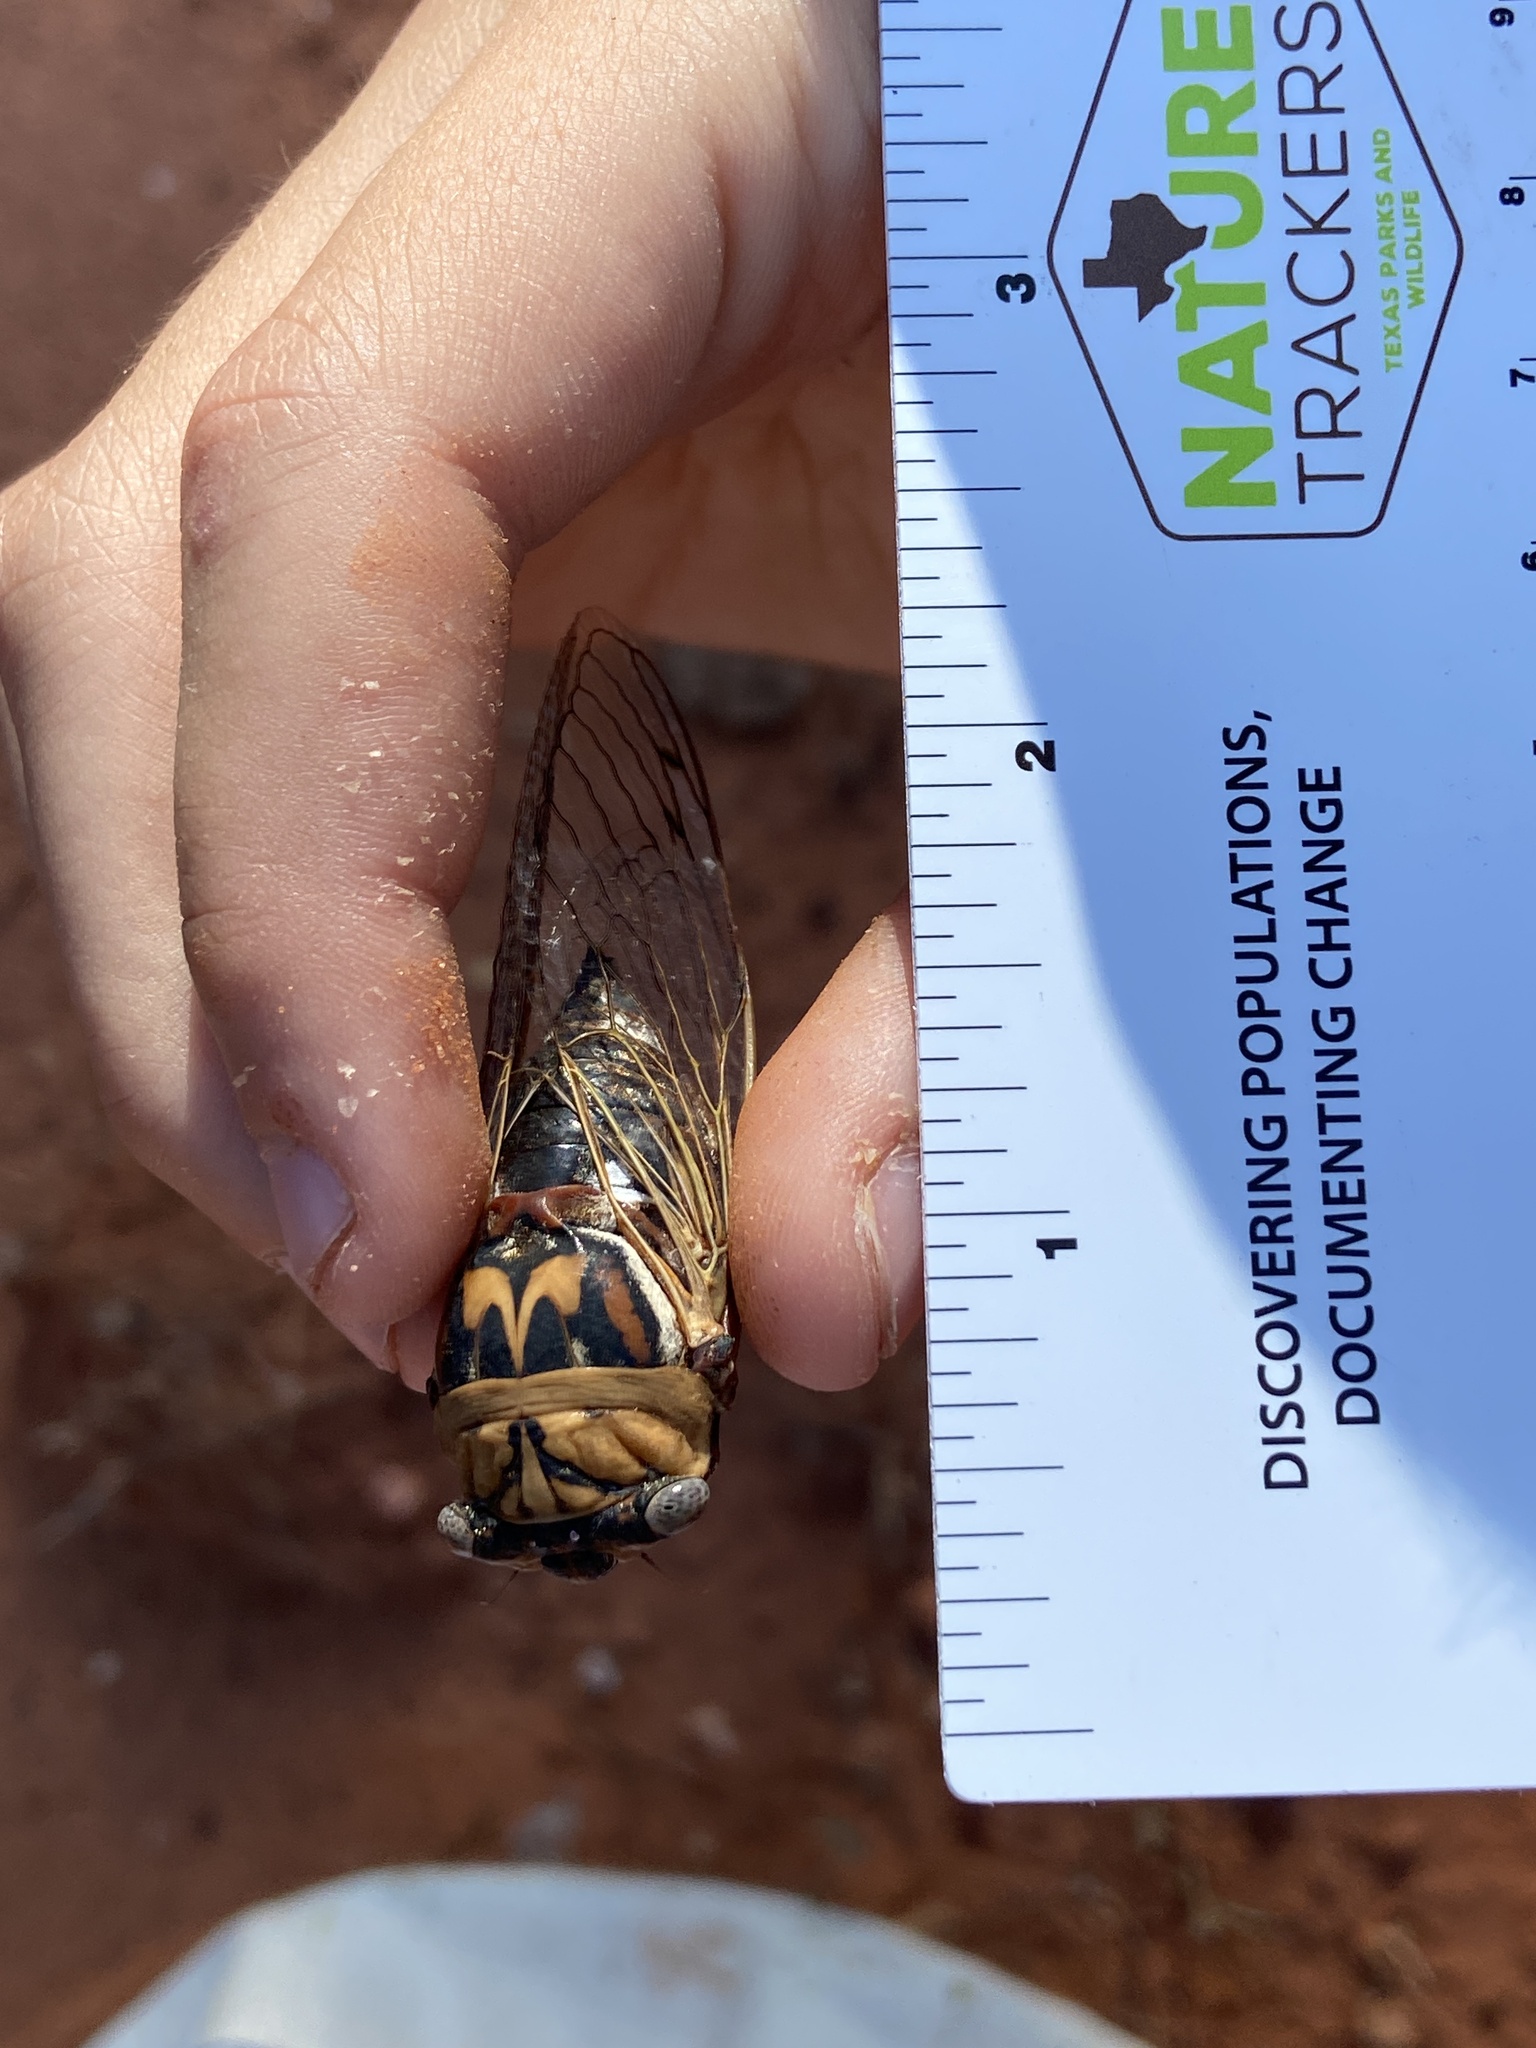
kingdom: Animalia
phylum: Arthropoda
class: Insecta
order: Hemiptera
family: Cicadidae
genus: Megatibicen
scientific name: Megatibicen resh
